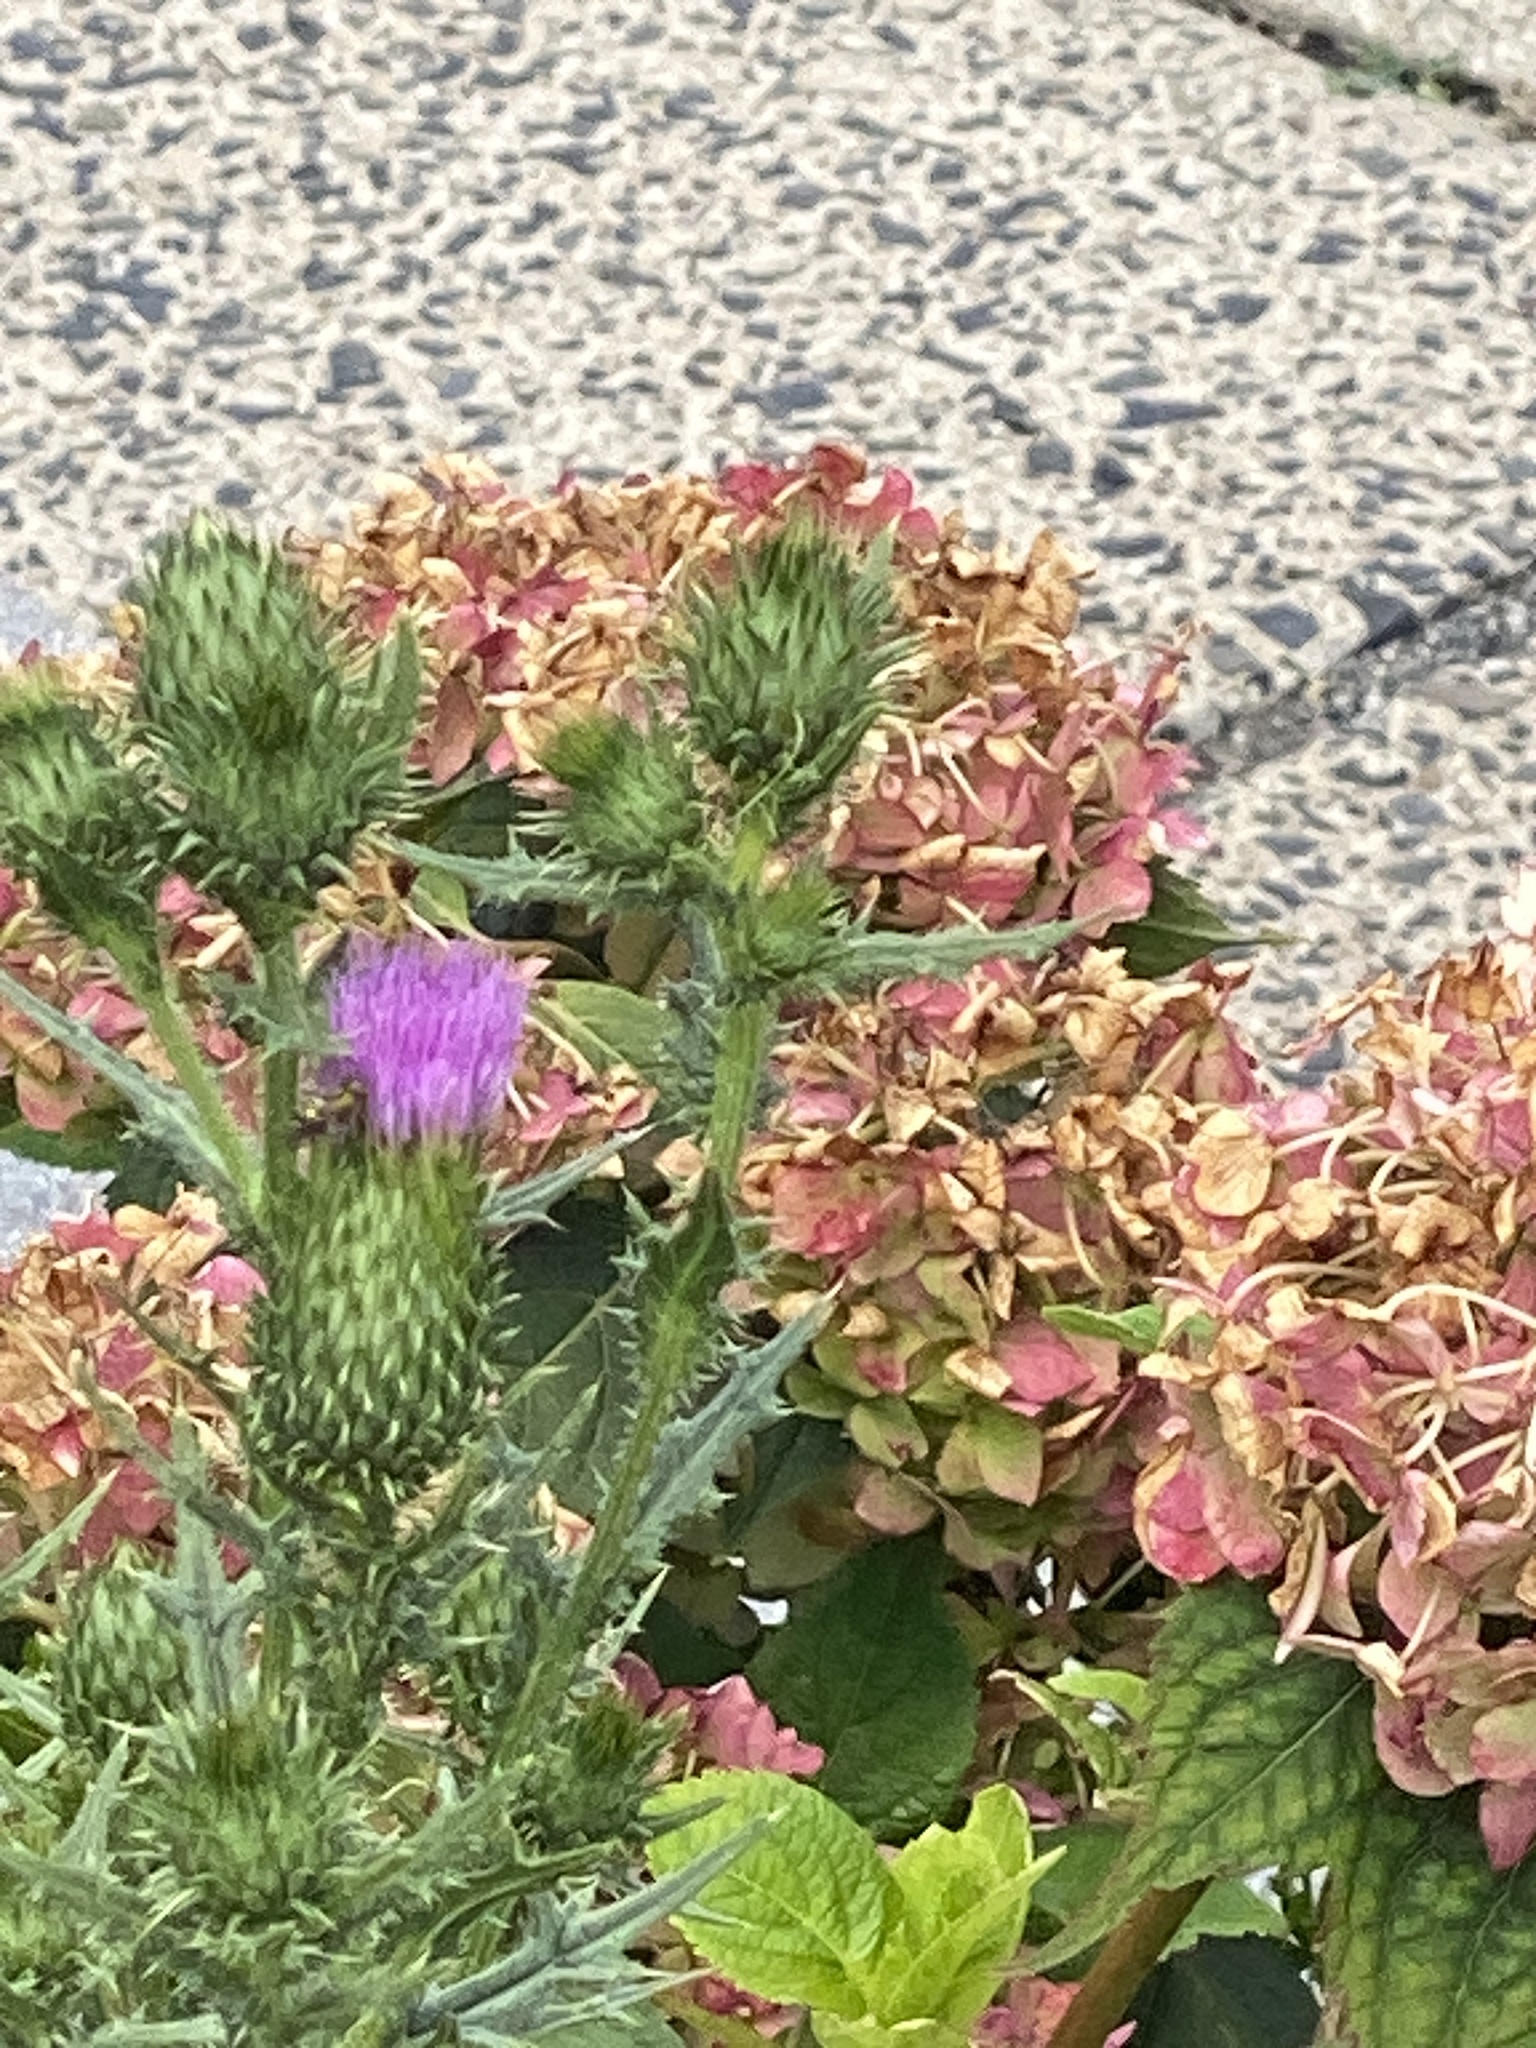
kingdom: Plantae
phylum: Tracheophyta
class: Magnoliopsida
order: Asterales
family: Asteraceae
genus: Cirsium
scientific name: Cirsium vulgare
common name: Bull thistle
